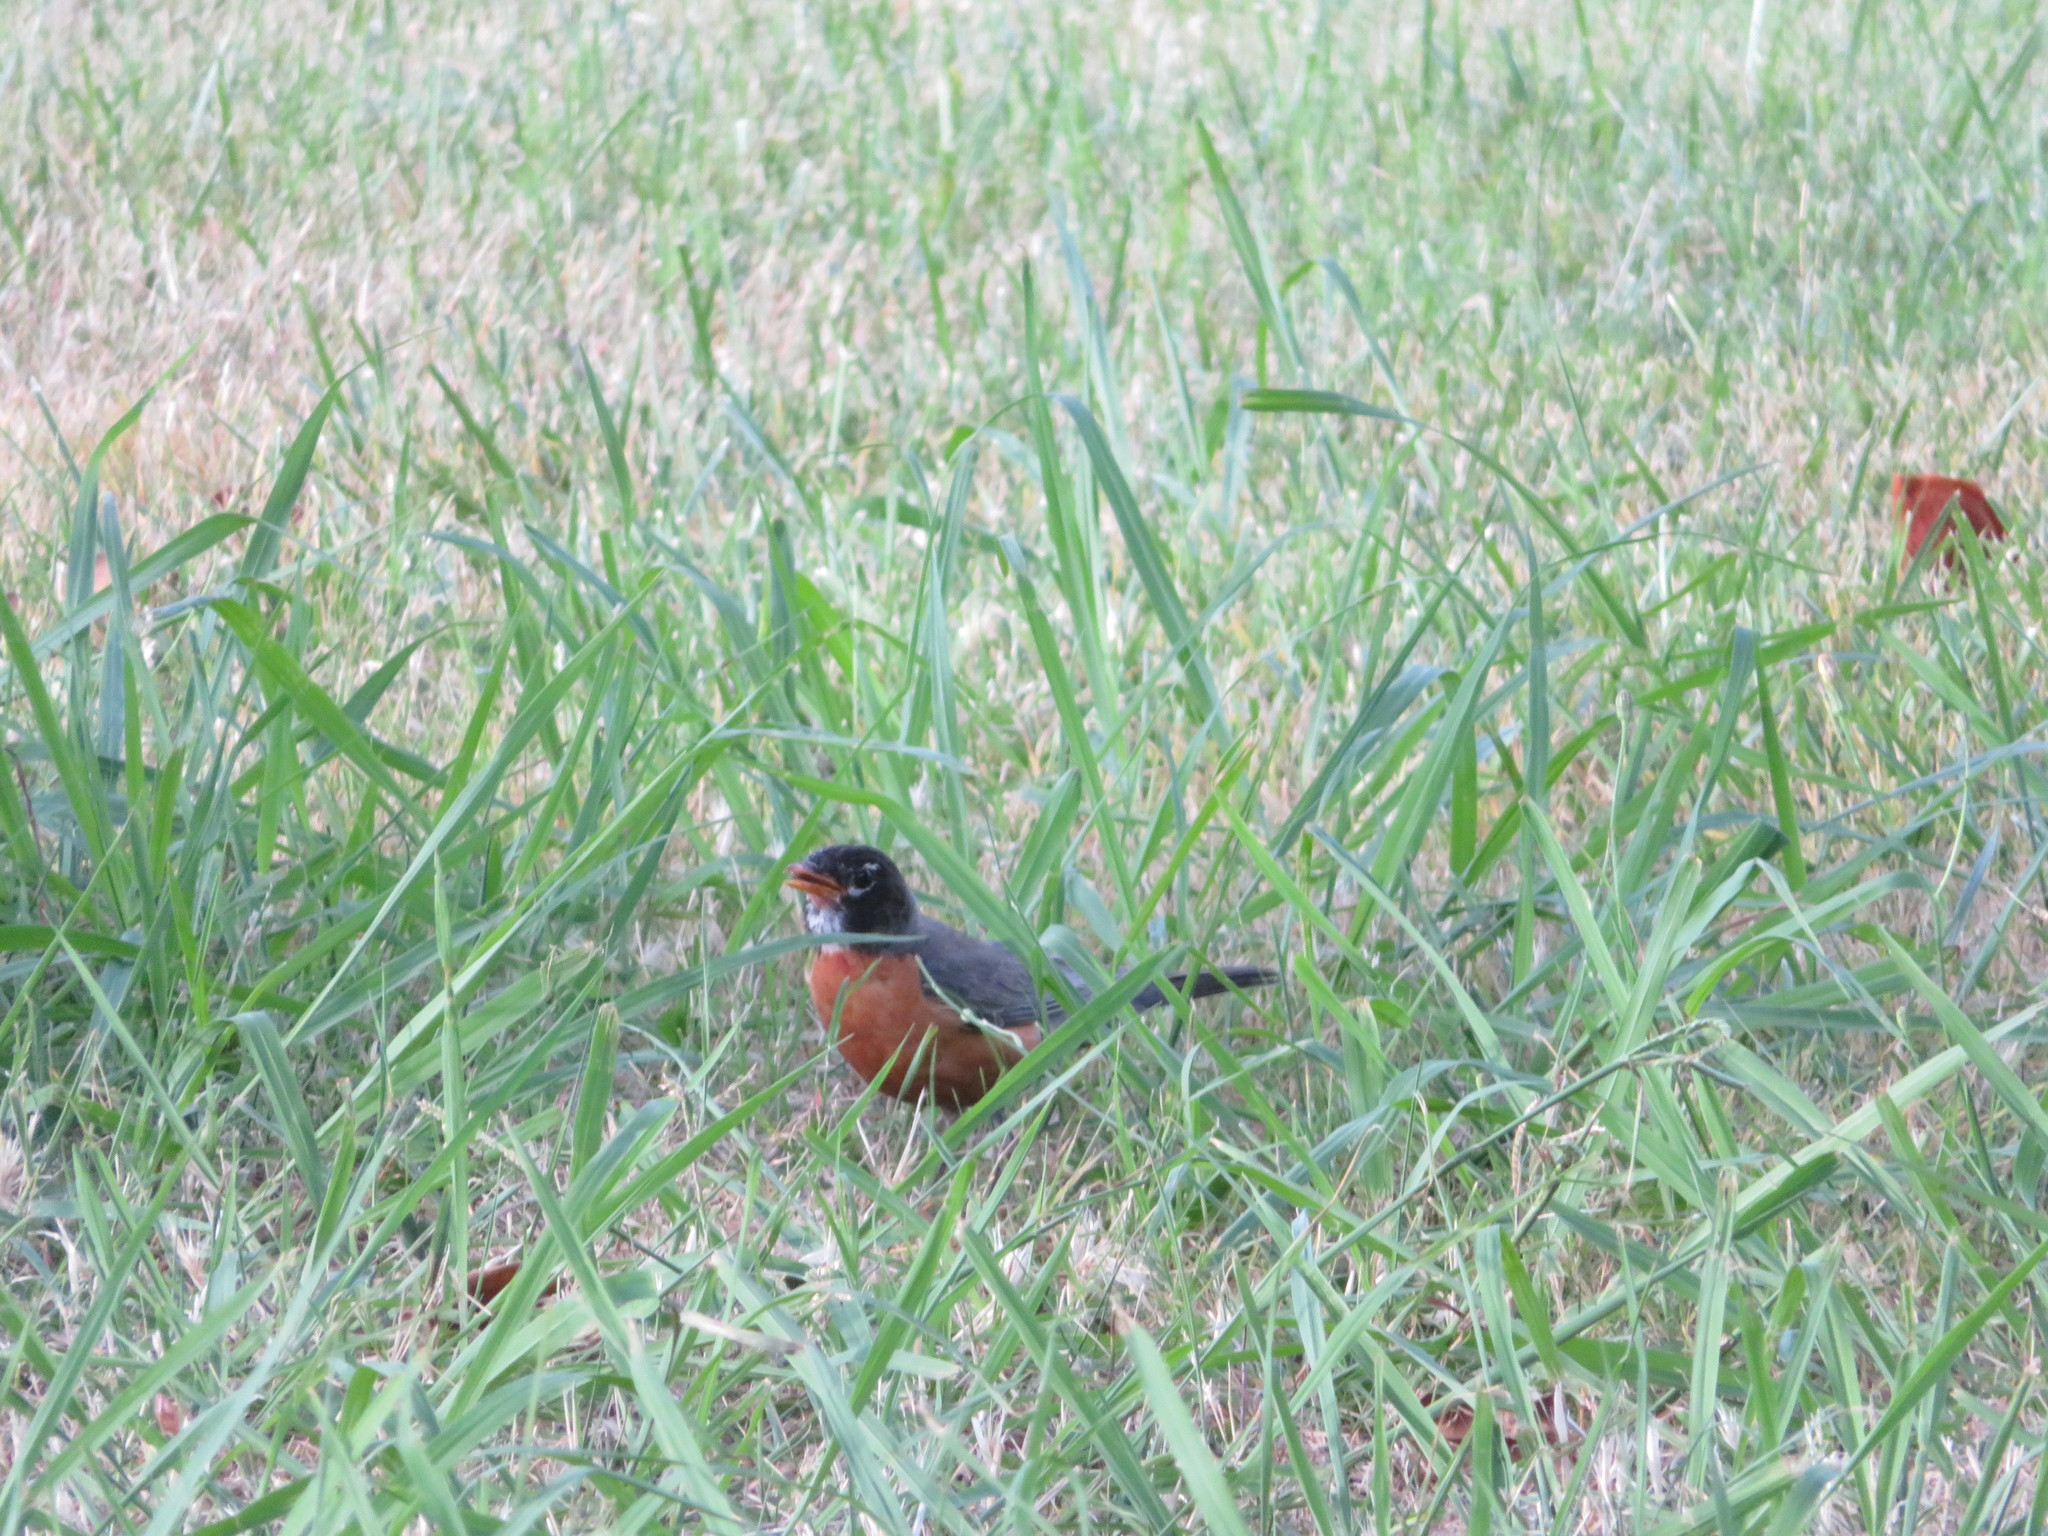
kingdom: Animalia
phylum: Chordata
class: Aves
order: Passeriformes
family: Turdidae
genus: Turdus
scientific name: Turdus migratorius
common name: American robin
